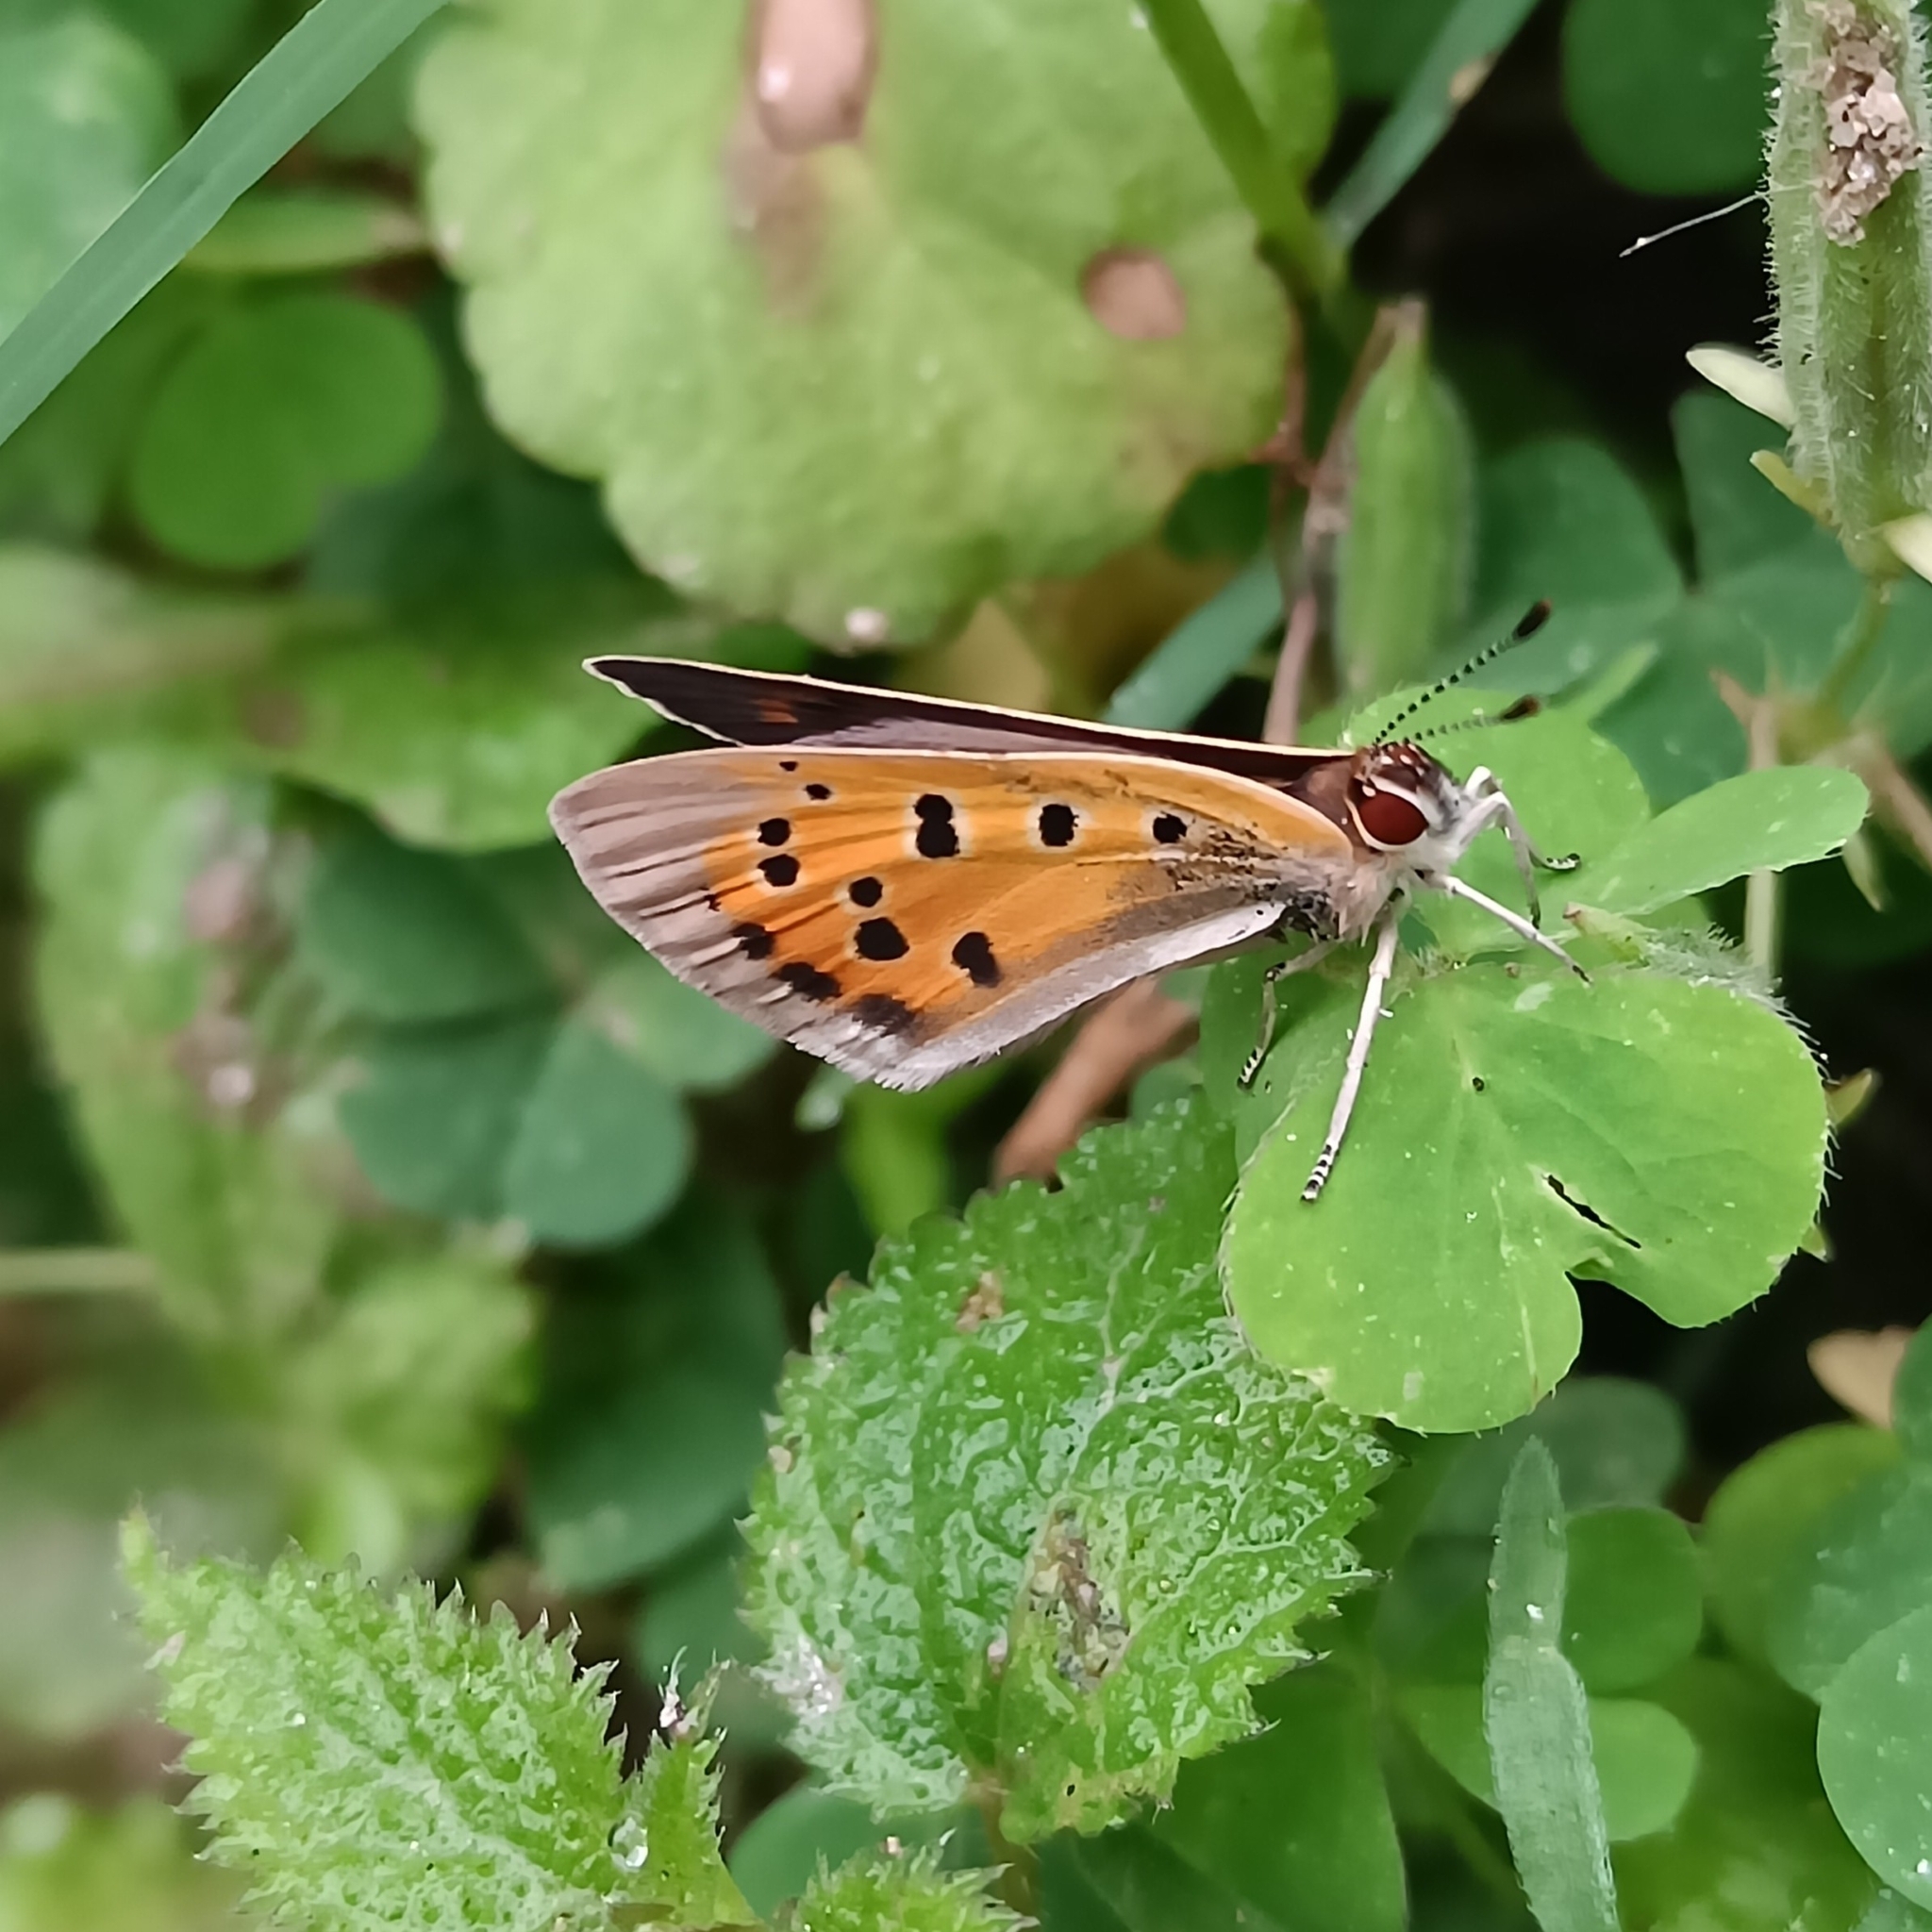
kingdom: Animalia
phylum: Arthropoda
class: Insecta
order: Lepidoptera
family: Lycaenidae
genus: Lycaena
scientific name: Lycaena phlaeas
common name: Small copper
